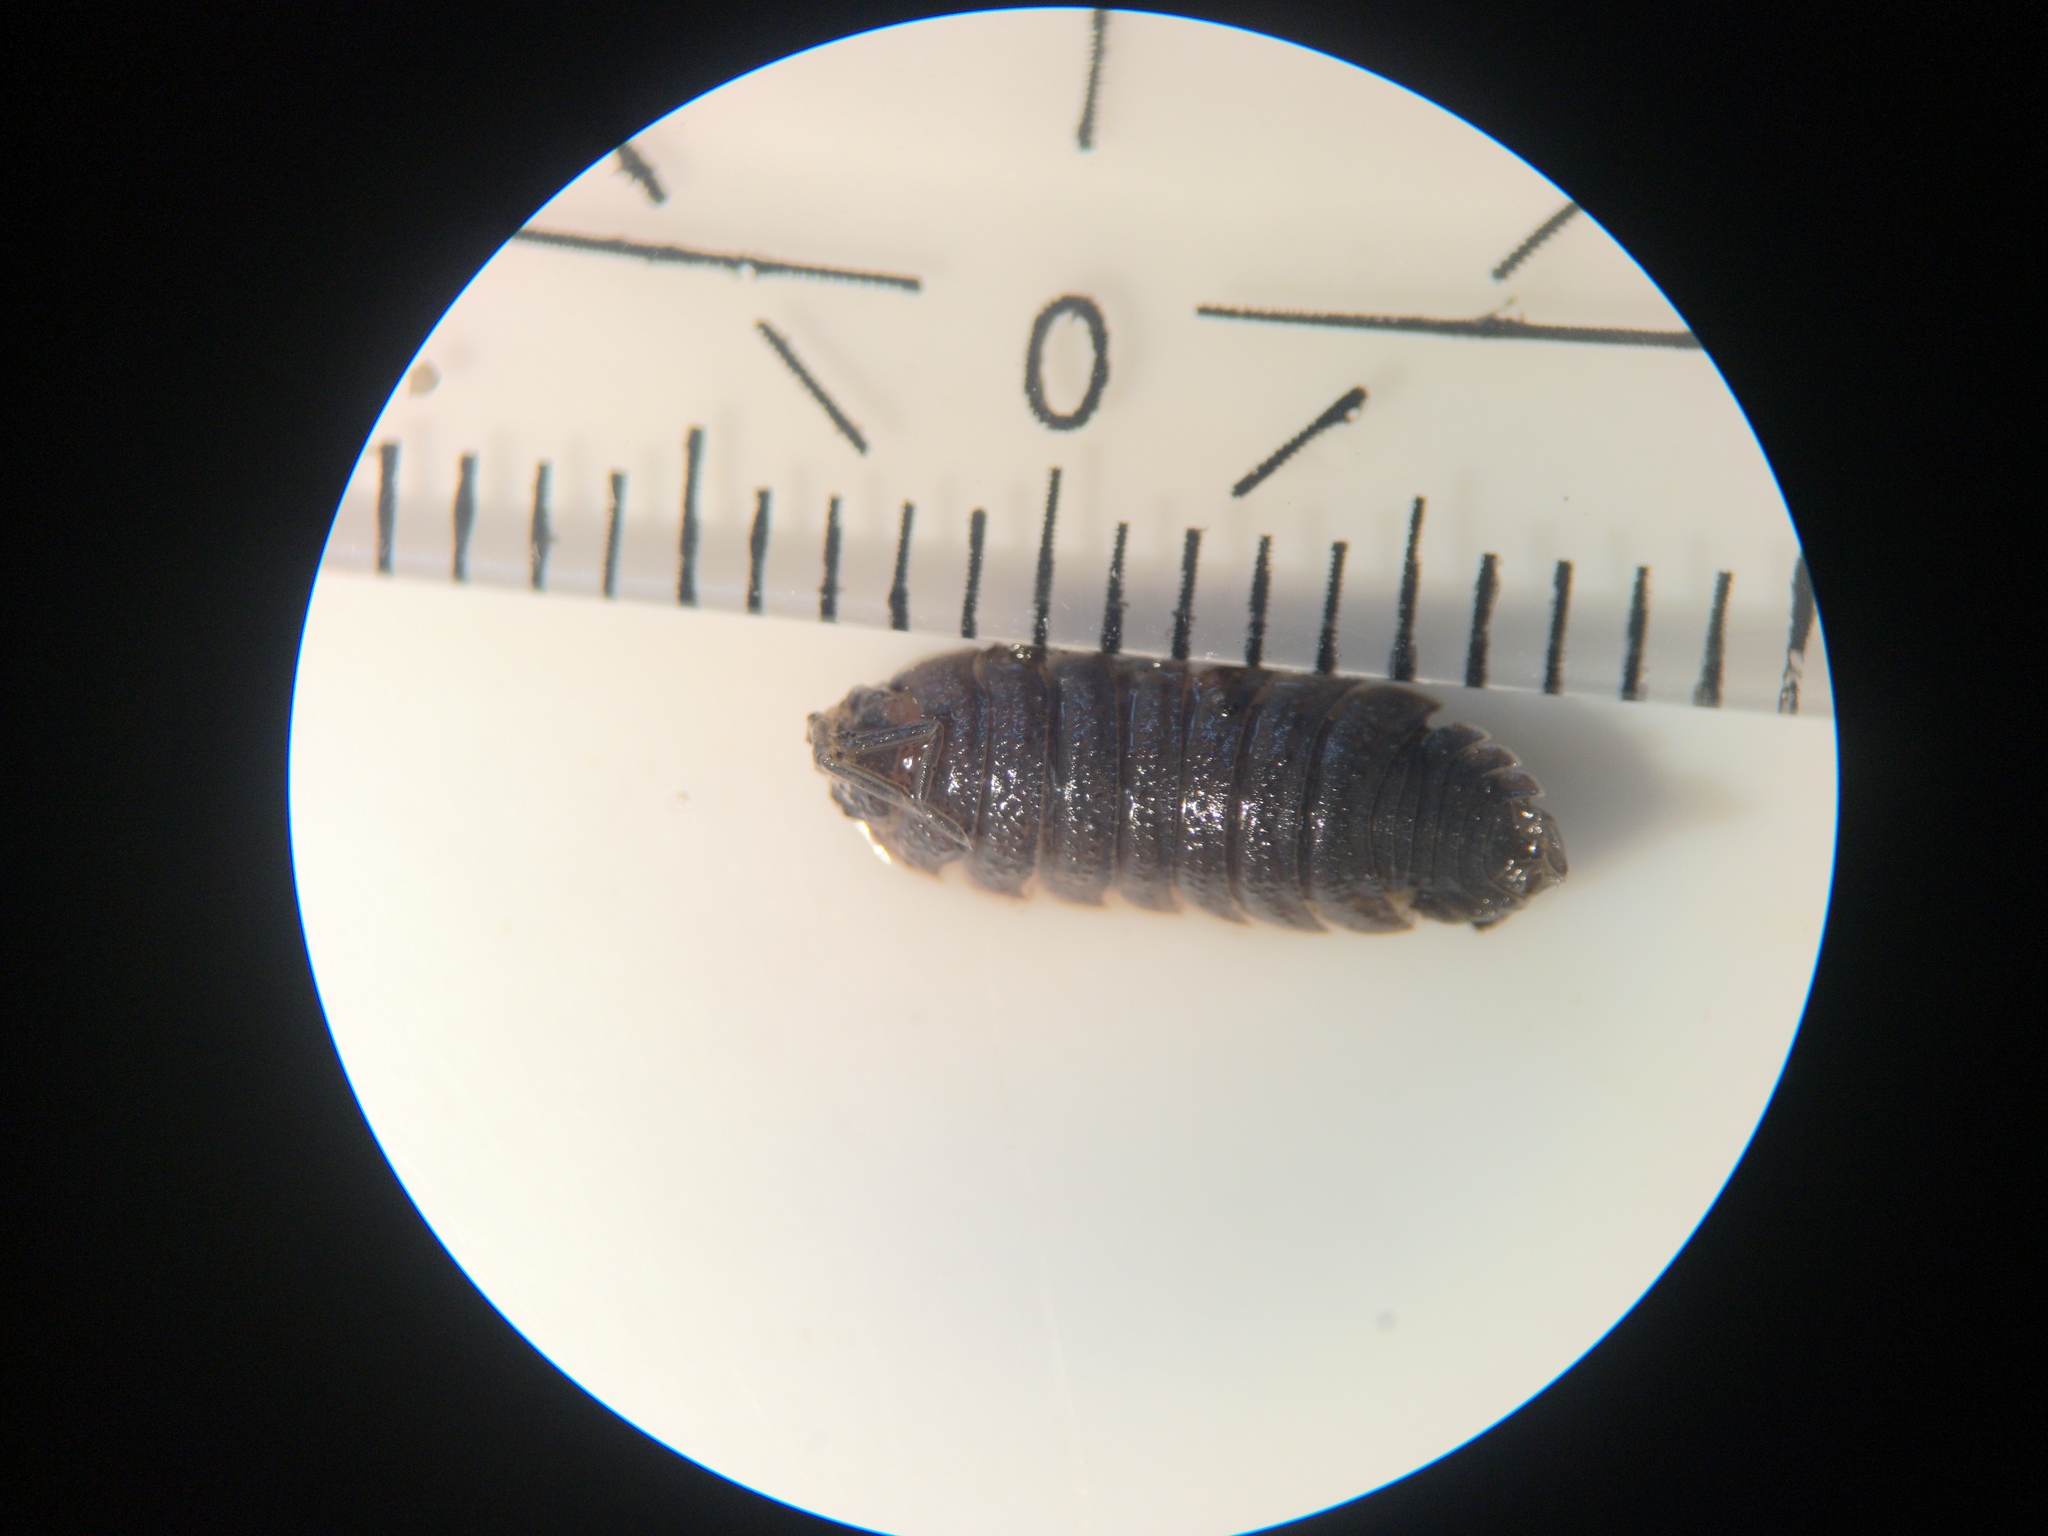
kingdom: Animalia
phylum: Arthropoda
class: Malacostraca
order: Isopoda
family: Porcellionidae
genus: Porcellio
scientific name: Porcellio scaber
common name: Common rough woodlouse
